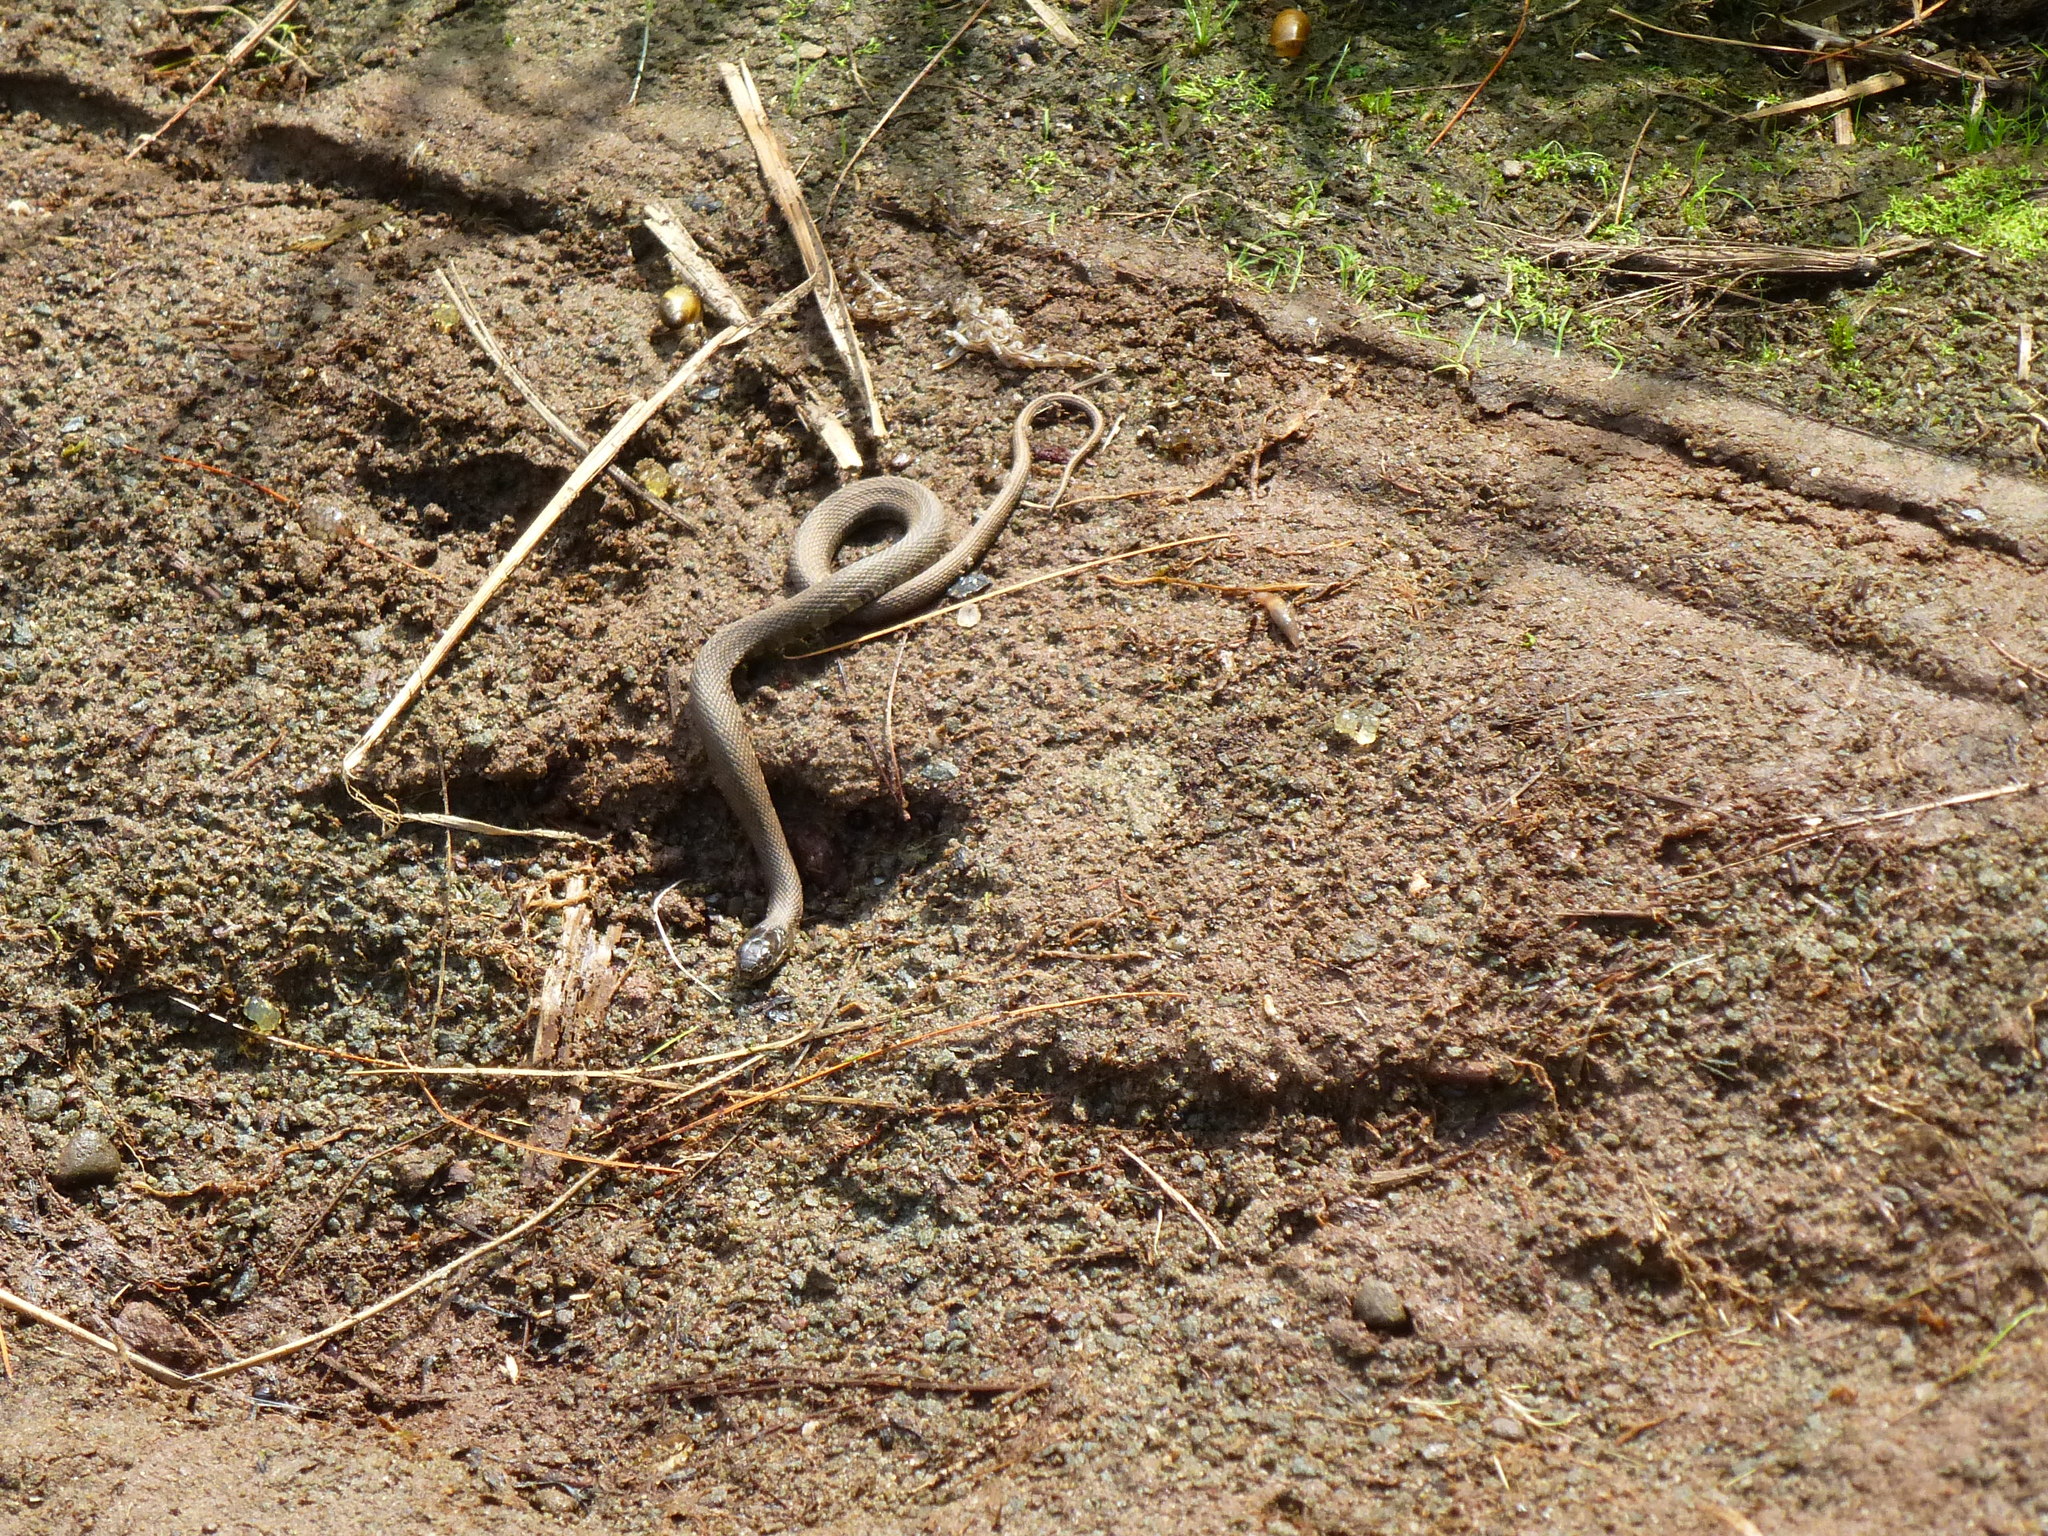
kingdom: Animalia
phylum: Chordata
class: Squamata
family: Colubridae
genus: Nerodia
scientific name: Nerodia sipedon
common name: Northern water snake
